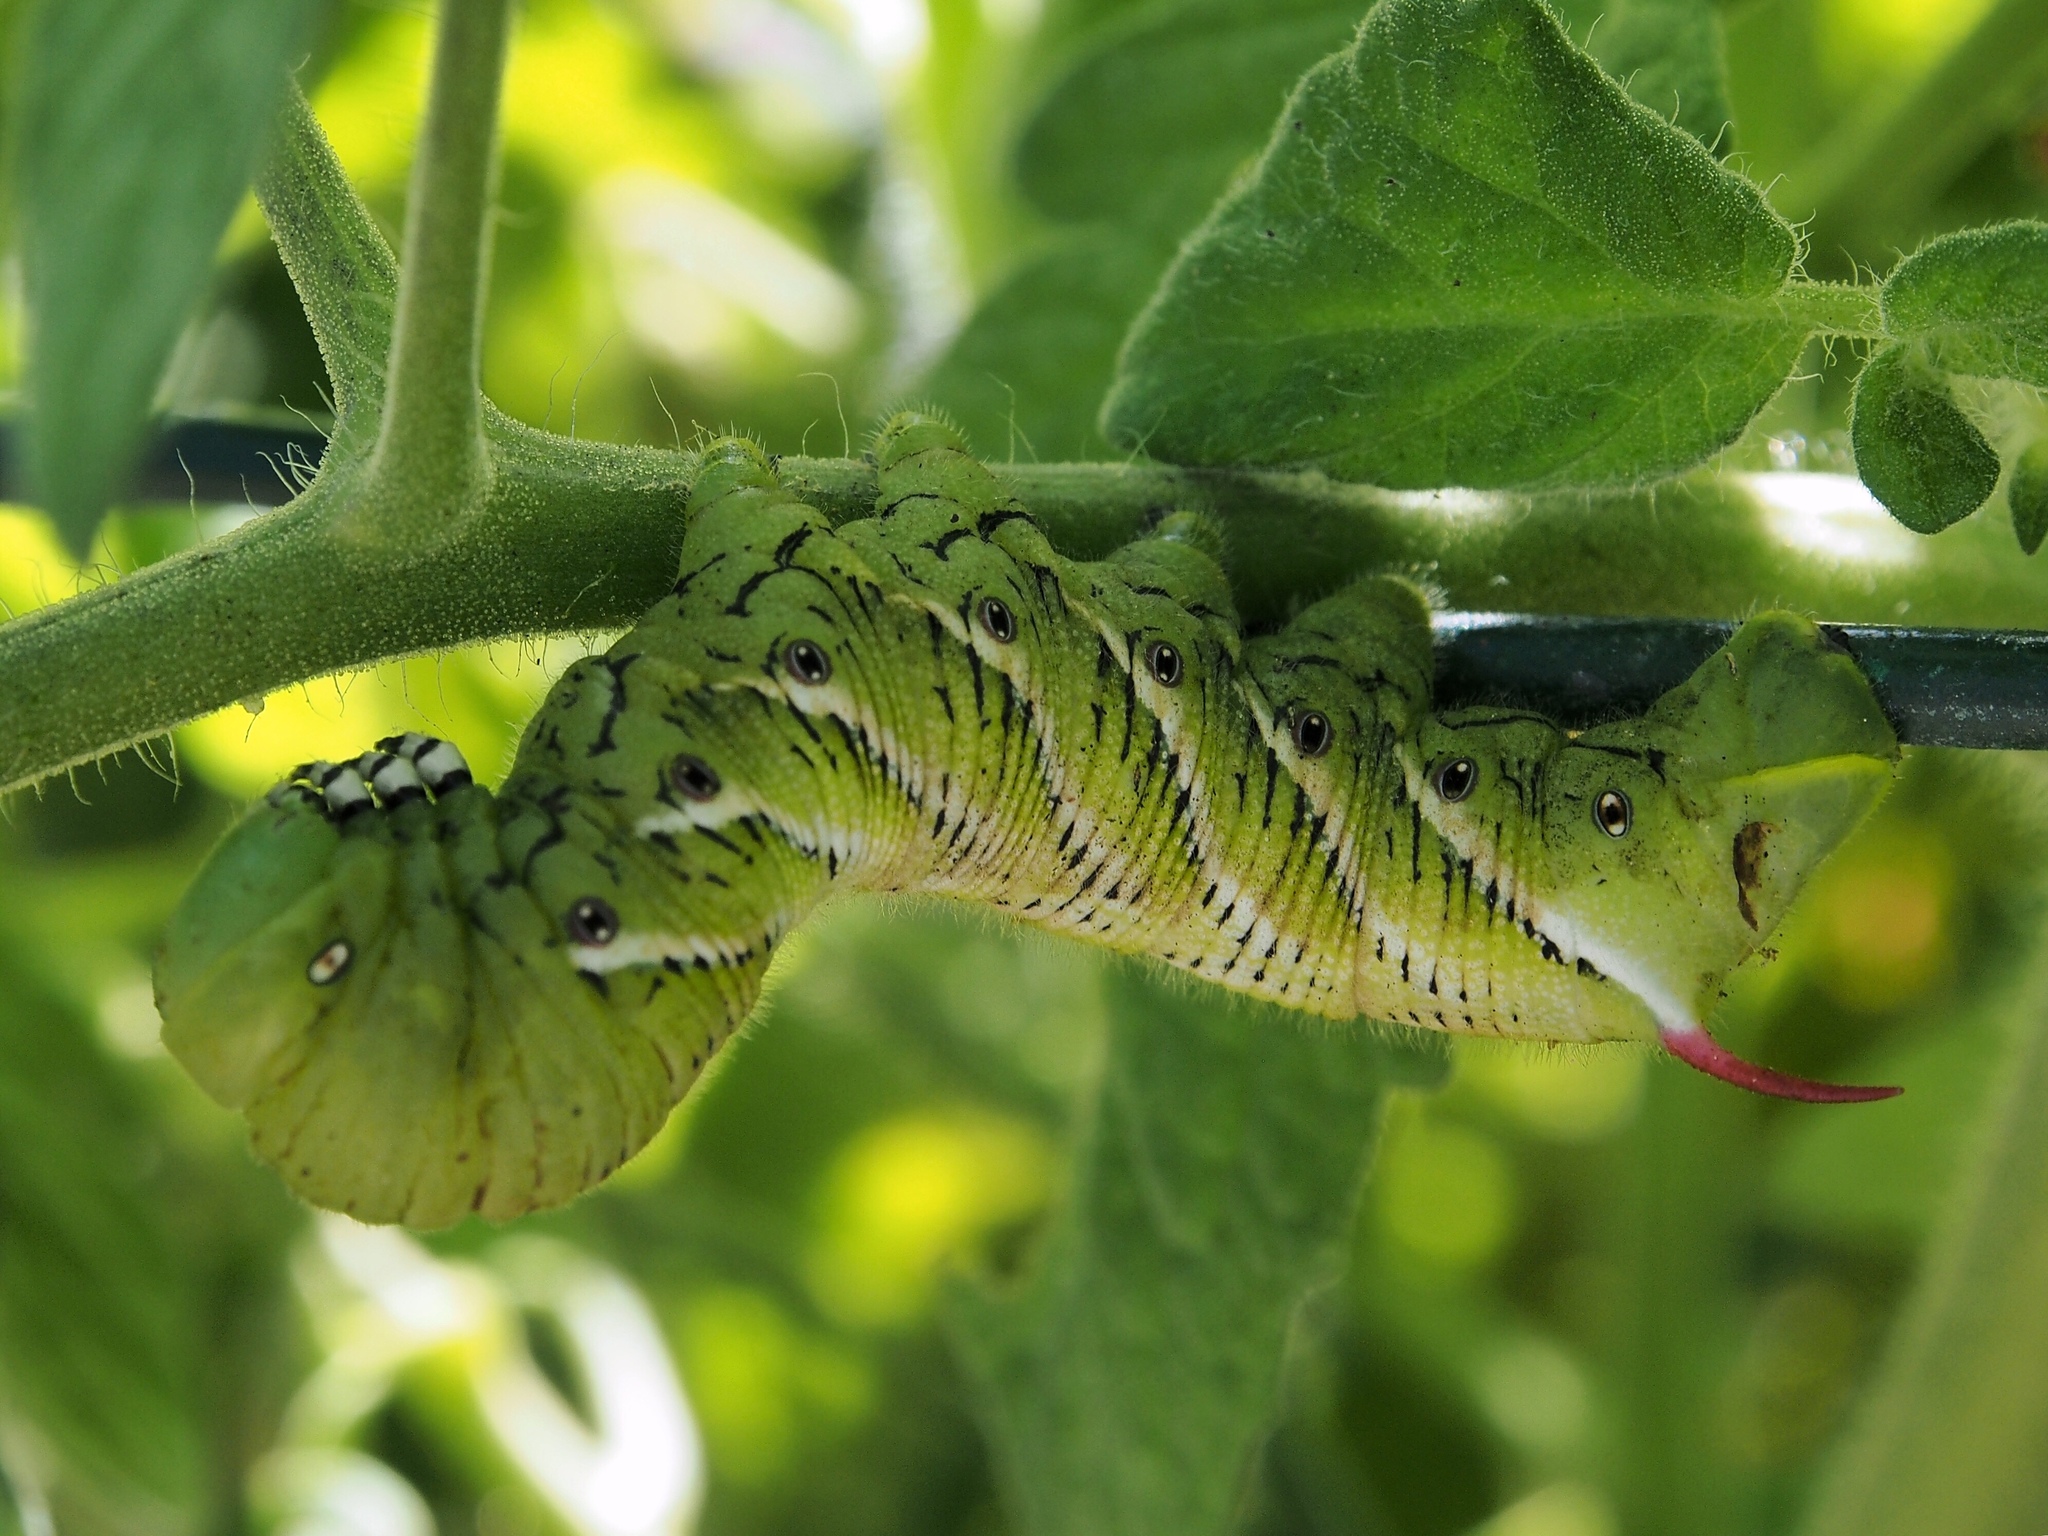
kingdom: Animalia
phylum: Arthropoda
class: Insecta
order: Lepidoptera
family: Sphingidae
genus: Manduca
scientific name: Manduca sexta
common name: Carolina sphinx
